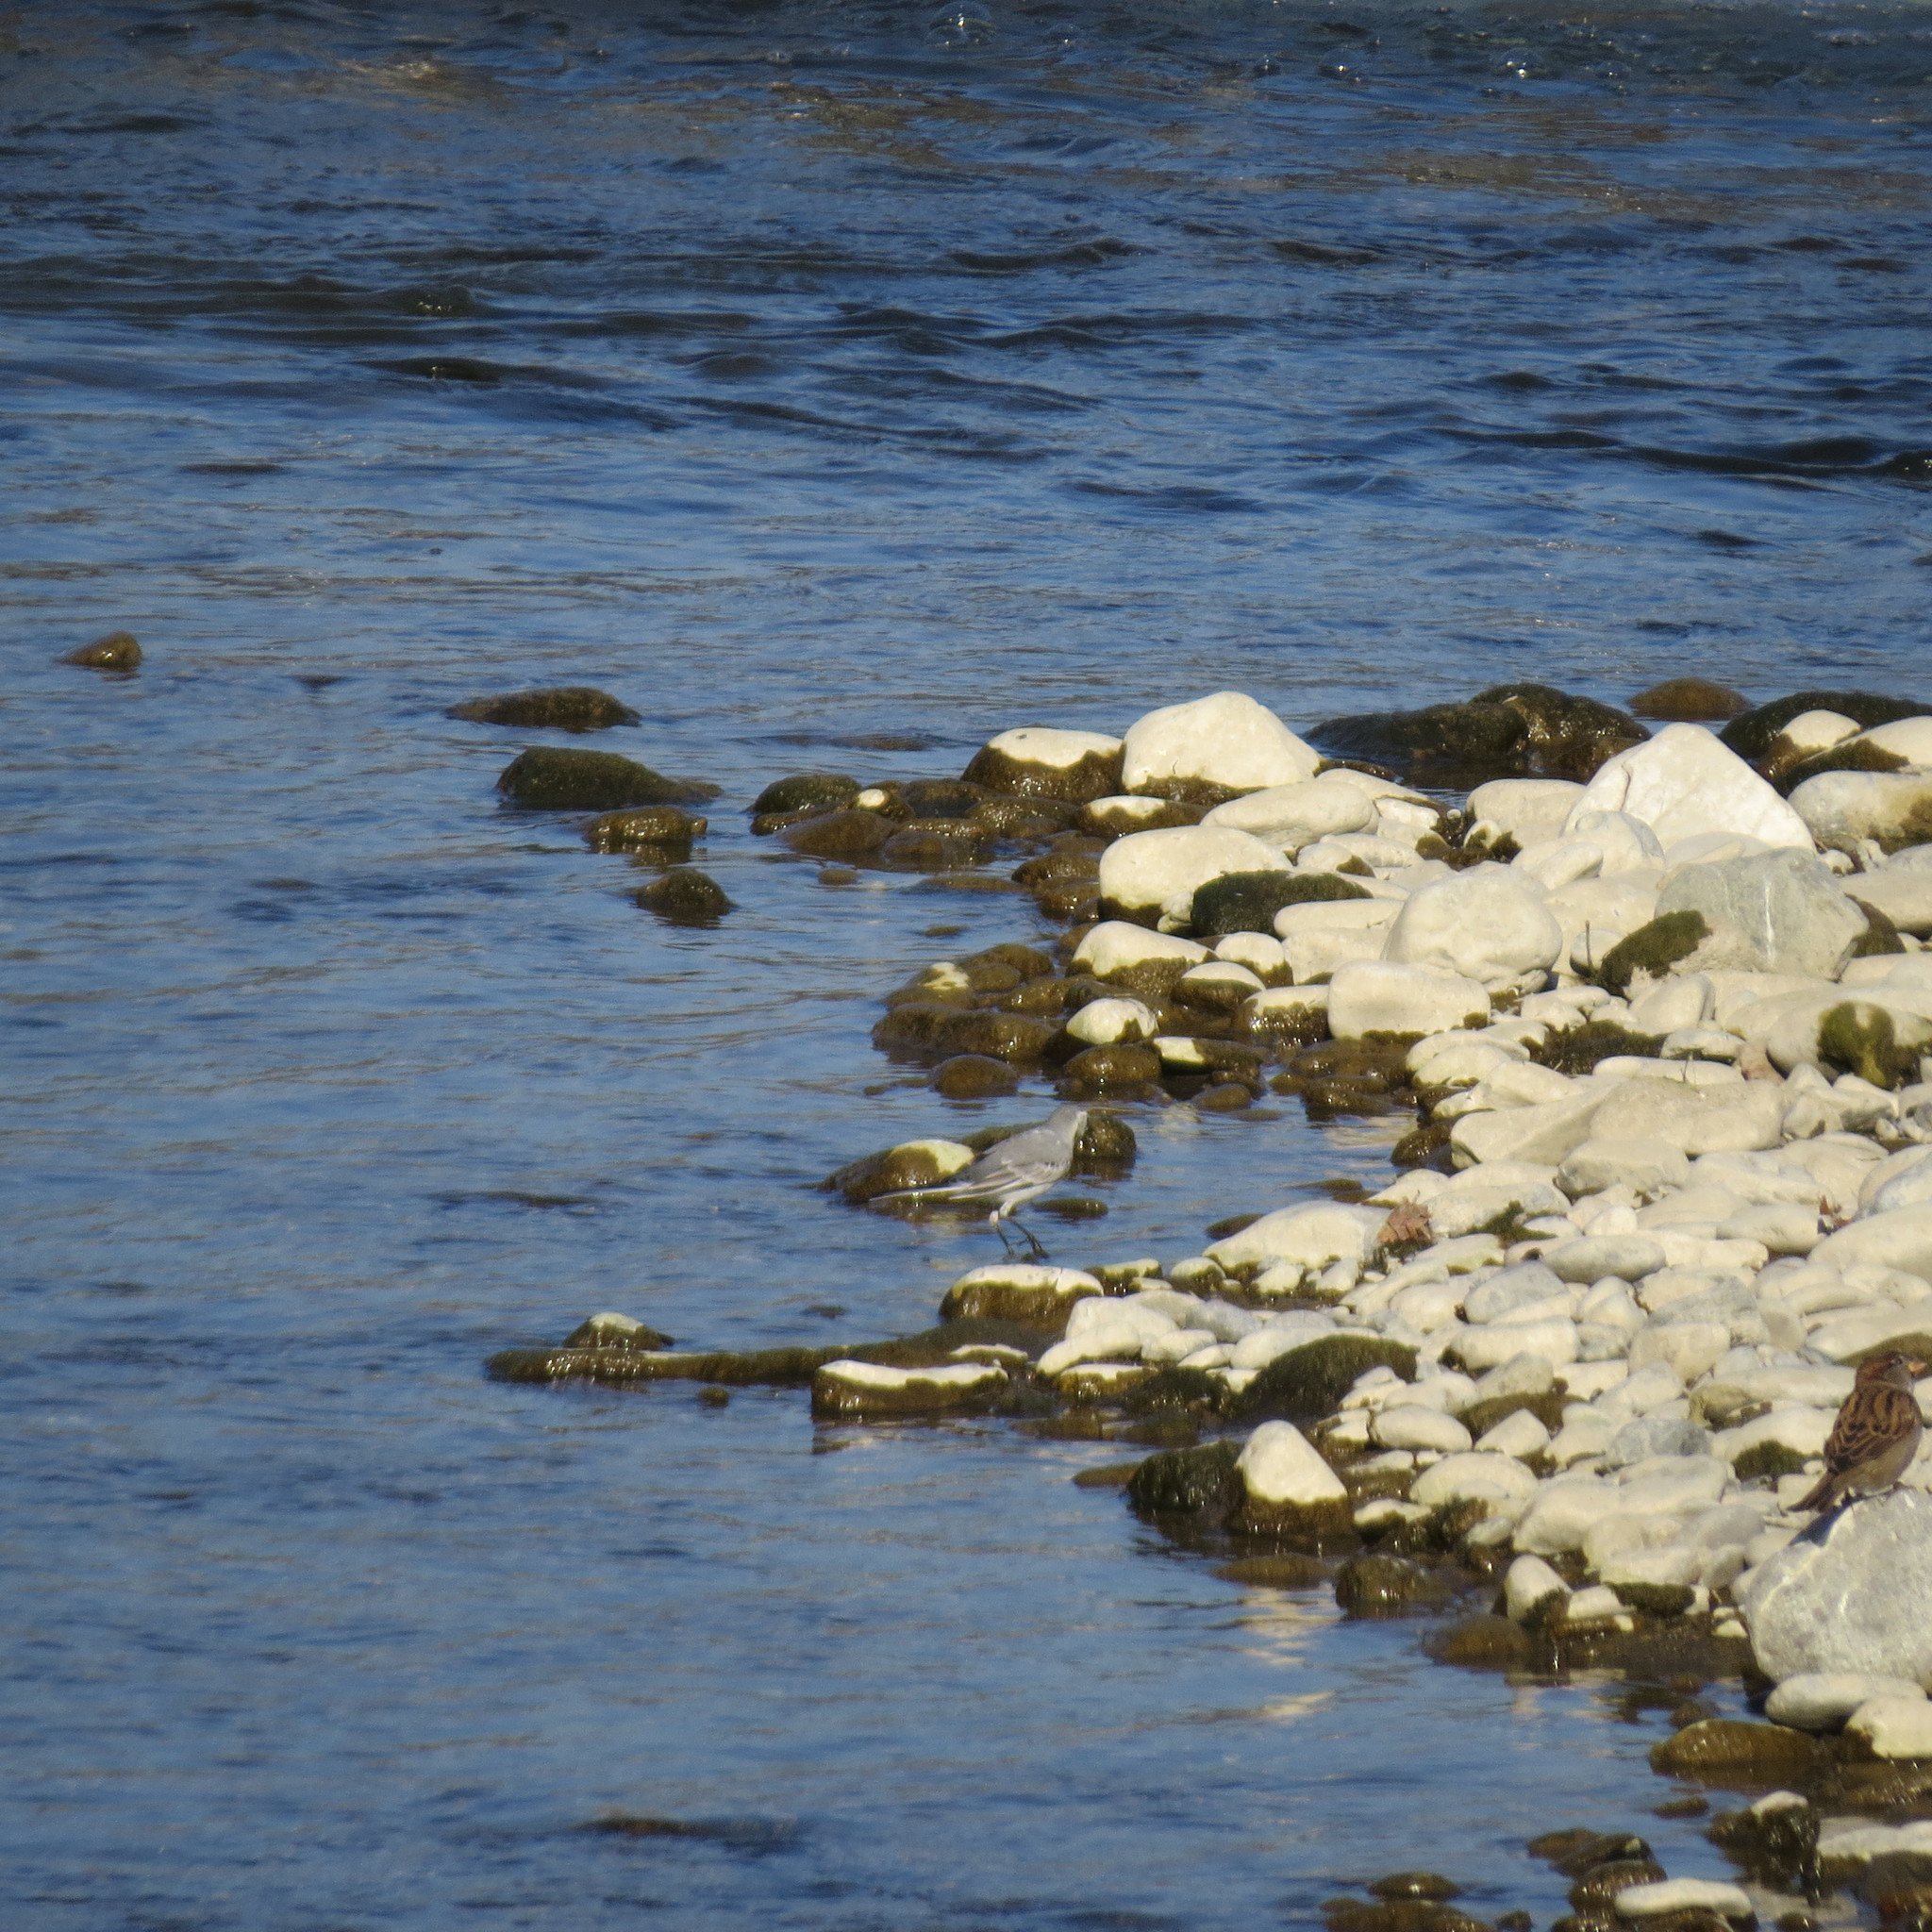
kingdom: Animalia
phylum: Chordata
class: Aves
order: Passeriformes
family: Motacillidae
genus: Motacilla
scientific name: Motacilla alba
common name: White wagtail
